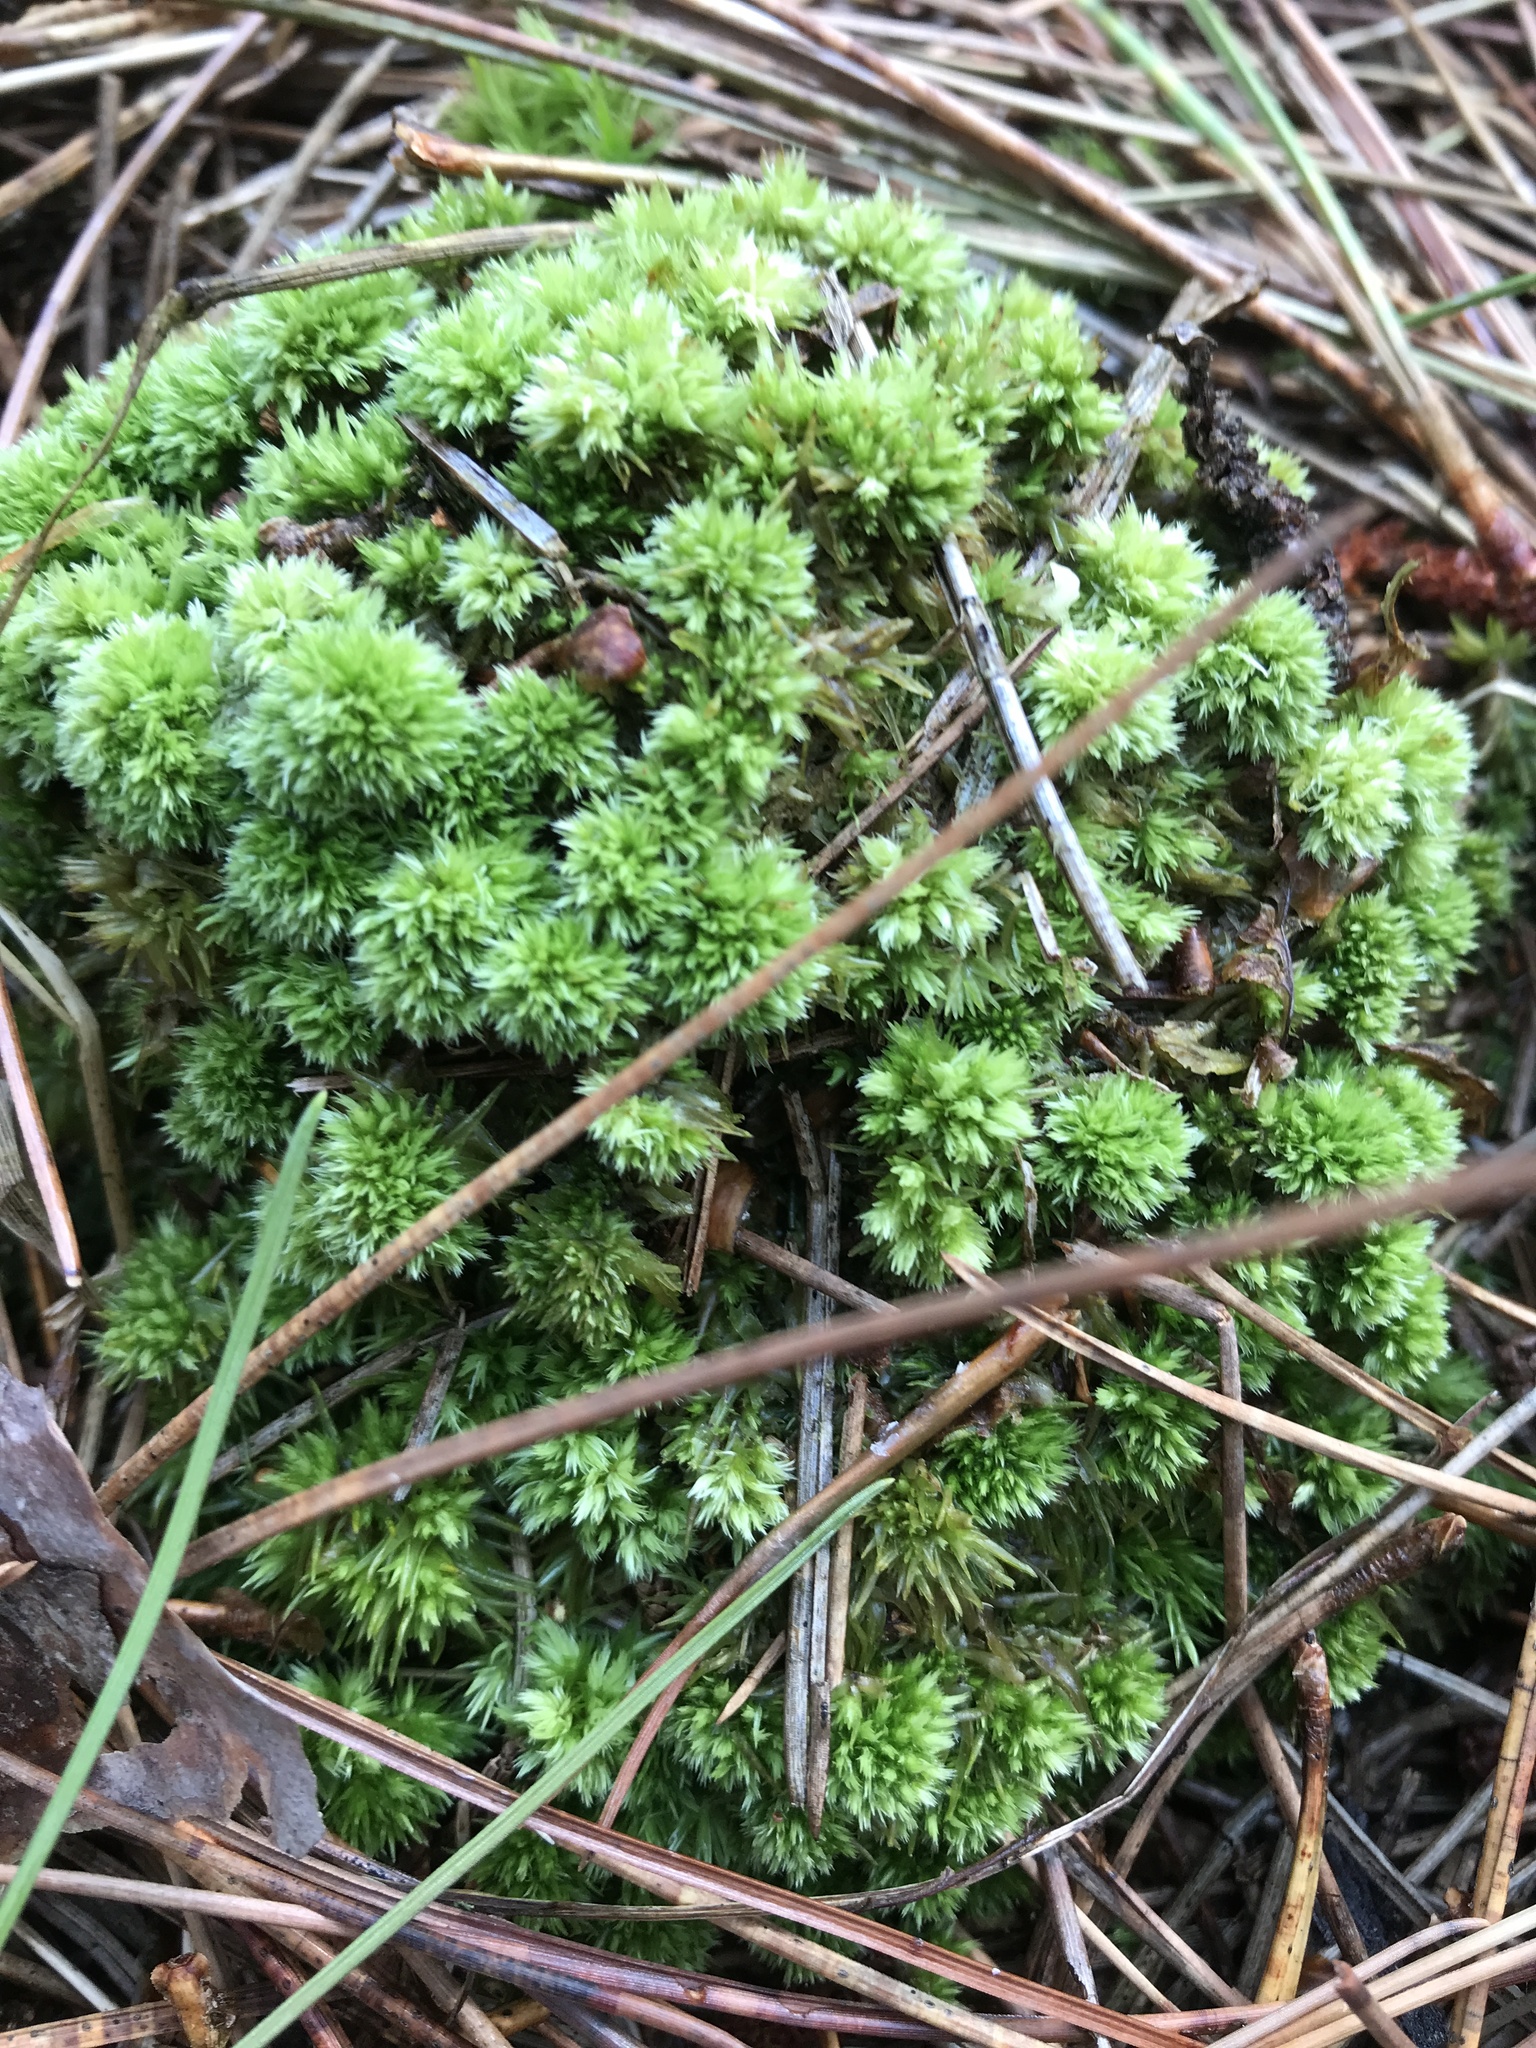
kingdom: Plantae
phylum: Bryophyta
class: Sphagnopsida
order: Sphagnales
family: Sphagnaceae
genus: Sphagnum
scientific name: Sphagnum compactum
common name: Compact peat moss
